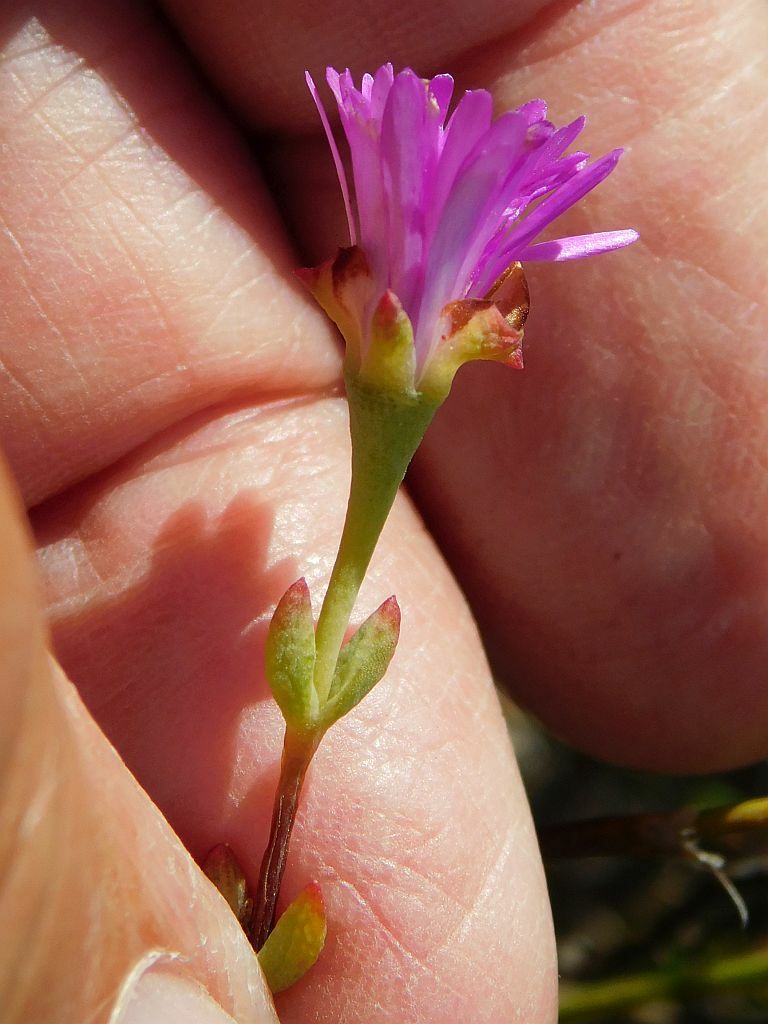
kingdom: Plantae
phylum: Tracheophyta
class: Magnoliopsida
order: Caryophyllales
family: Aizoaceae
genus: Lampranthus
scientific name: Lampranthus falcatus
